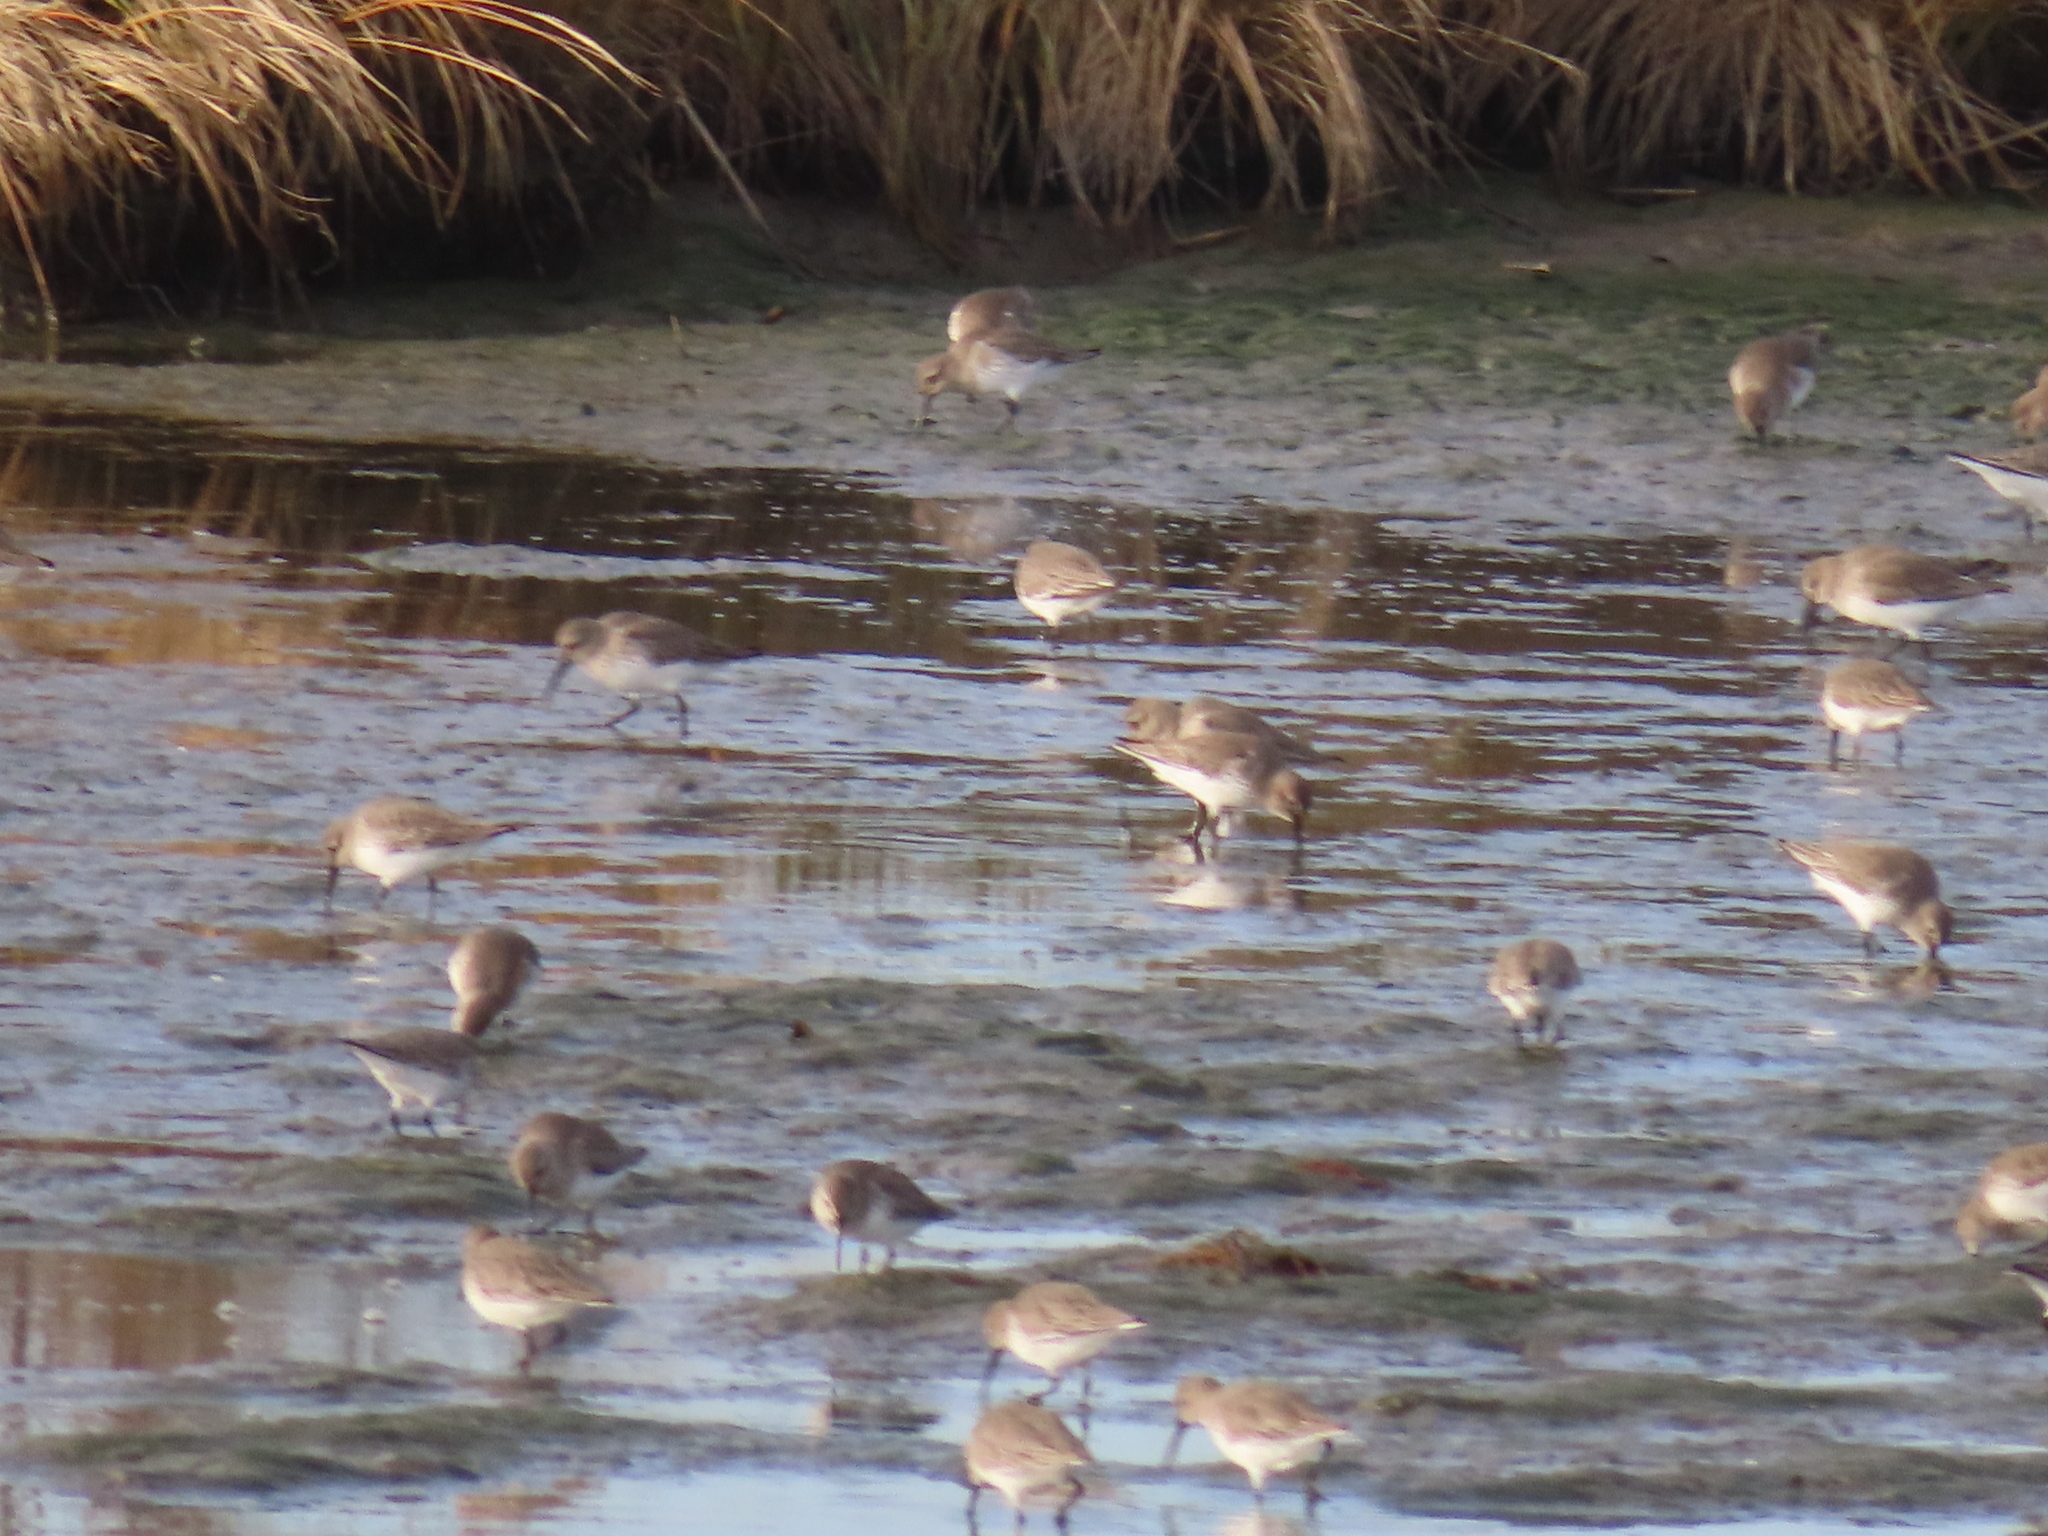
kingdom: Animalia
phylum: Chordata
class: Aves
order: Charadriiformes
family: Scolopacidae
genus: Calidris
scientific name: Calidris alpina
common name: Dunlin
